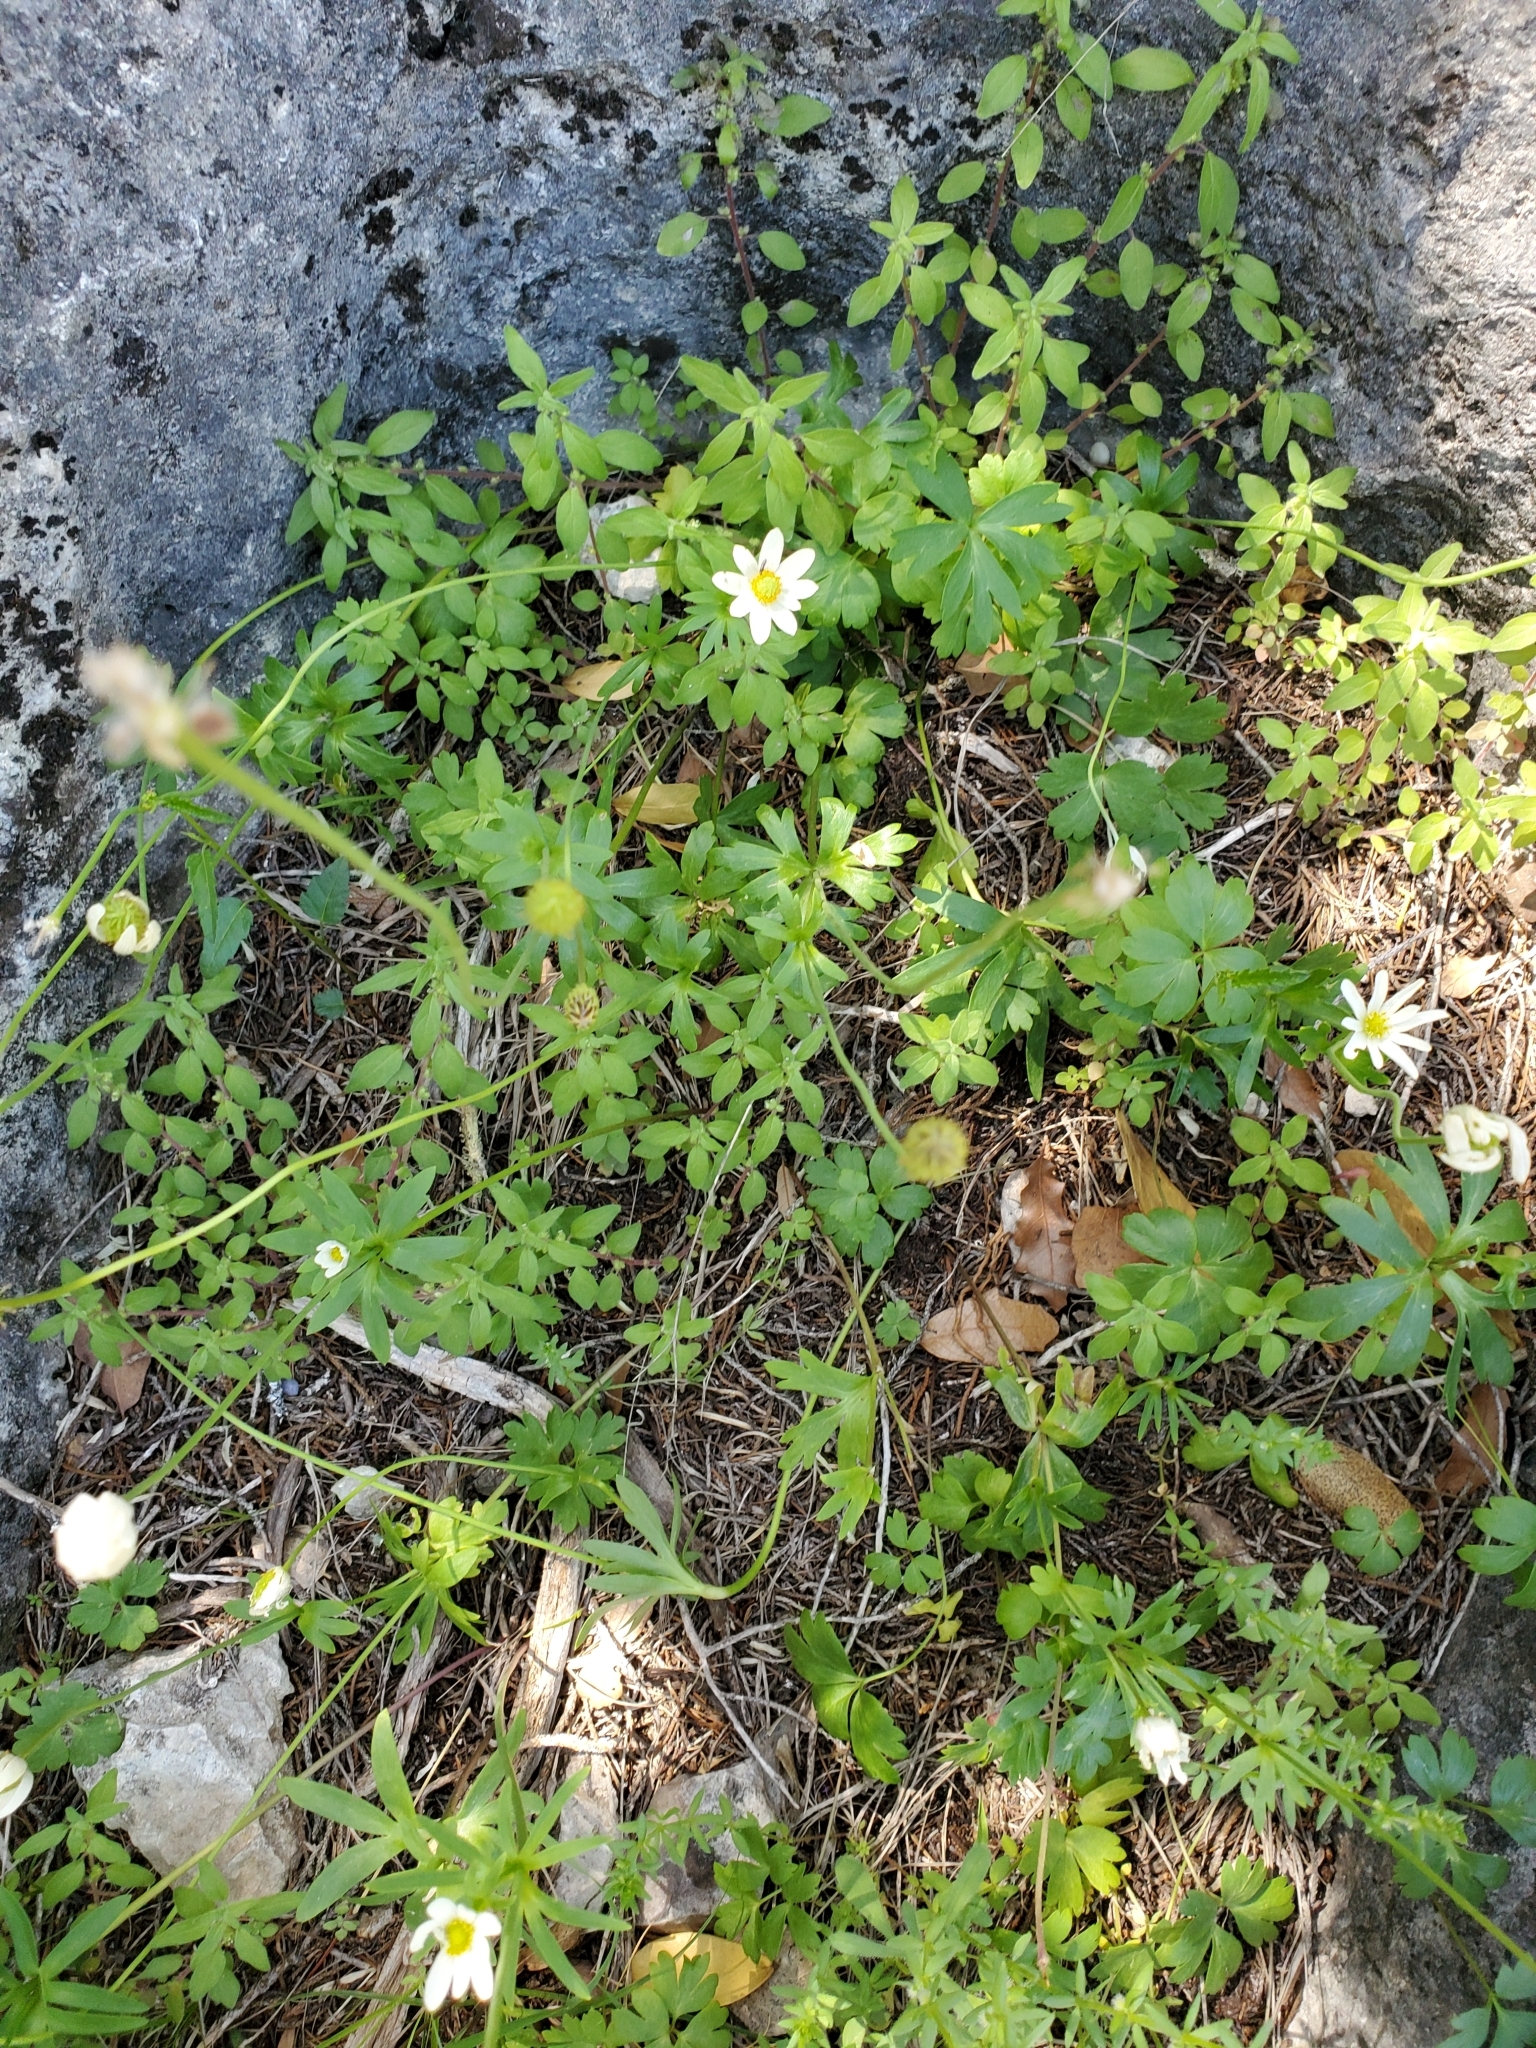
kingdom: Plantae
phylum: Tracheophyta
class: Magnoliopsida
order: Ranunculales
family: Ranunculaceae
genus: Anemone
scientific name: Anemone edwardsiana
